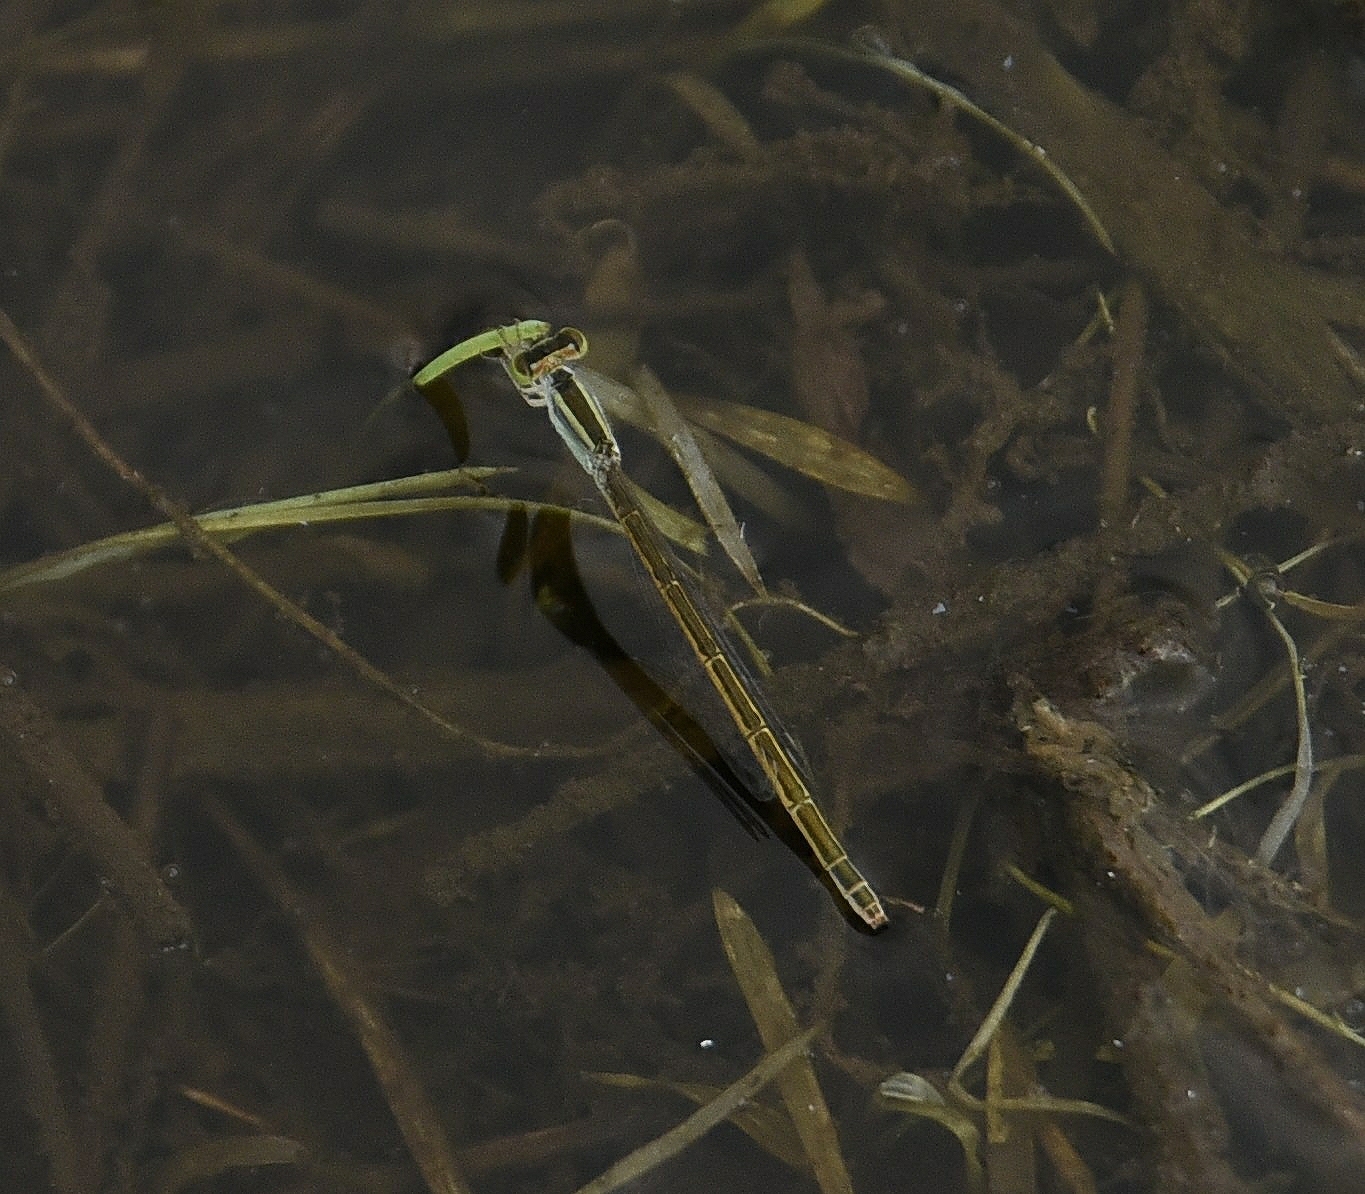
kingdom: Animalia
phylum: Arthropoda
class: Insecta
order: Odonata
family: Coenagrionidae
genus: Ischnura
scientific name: Ischnura rubilio
